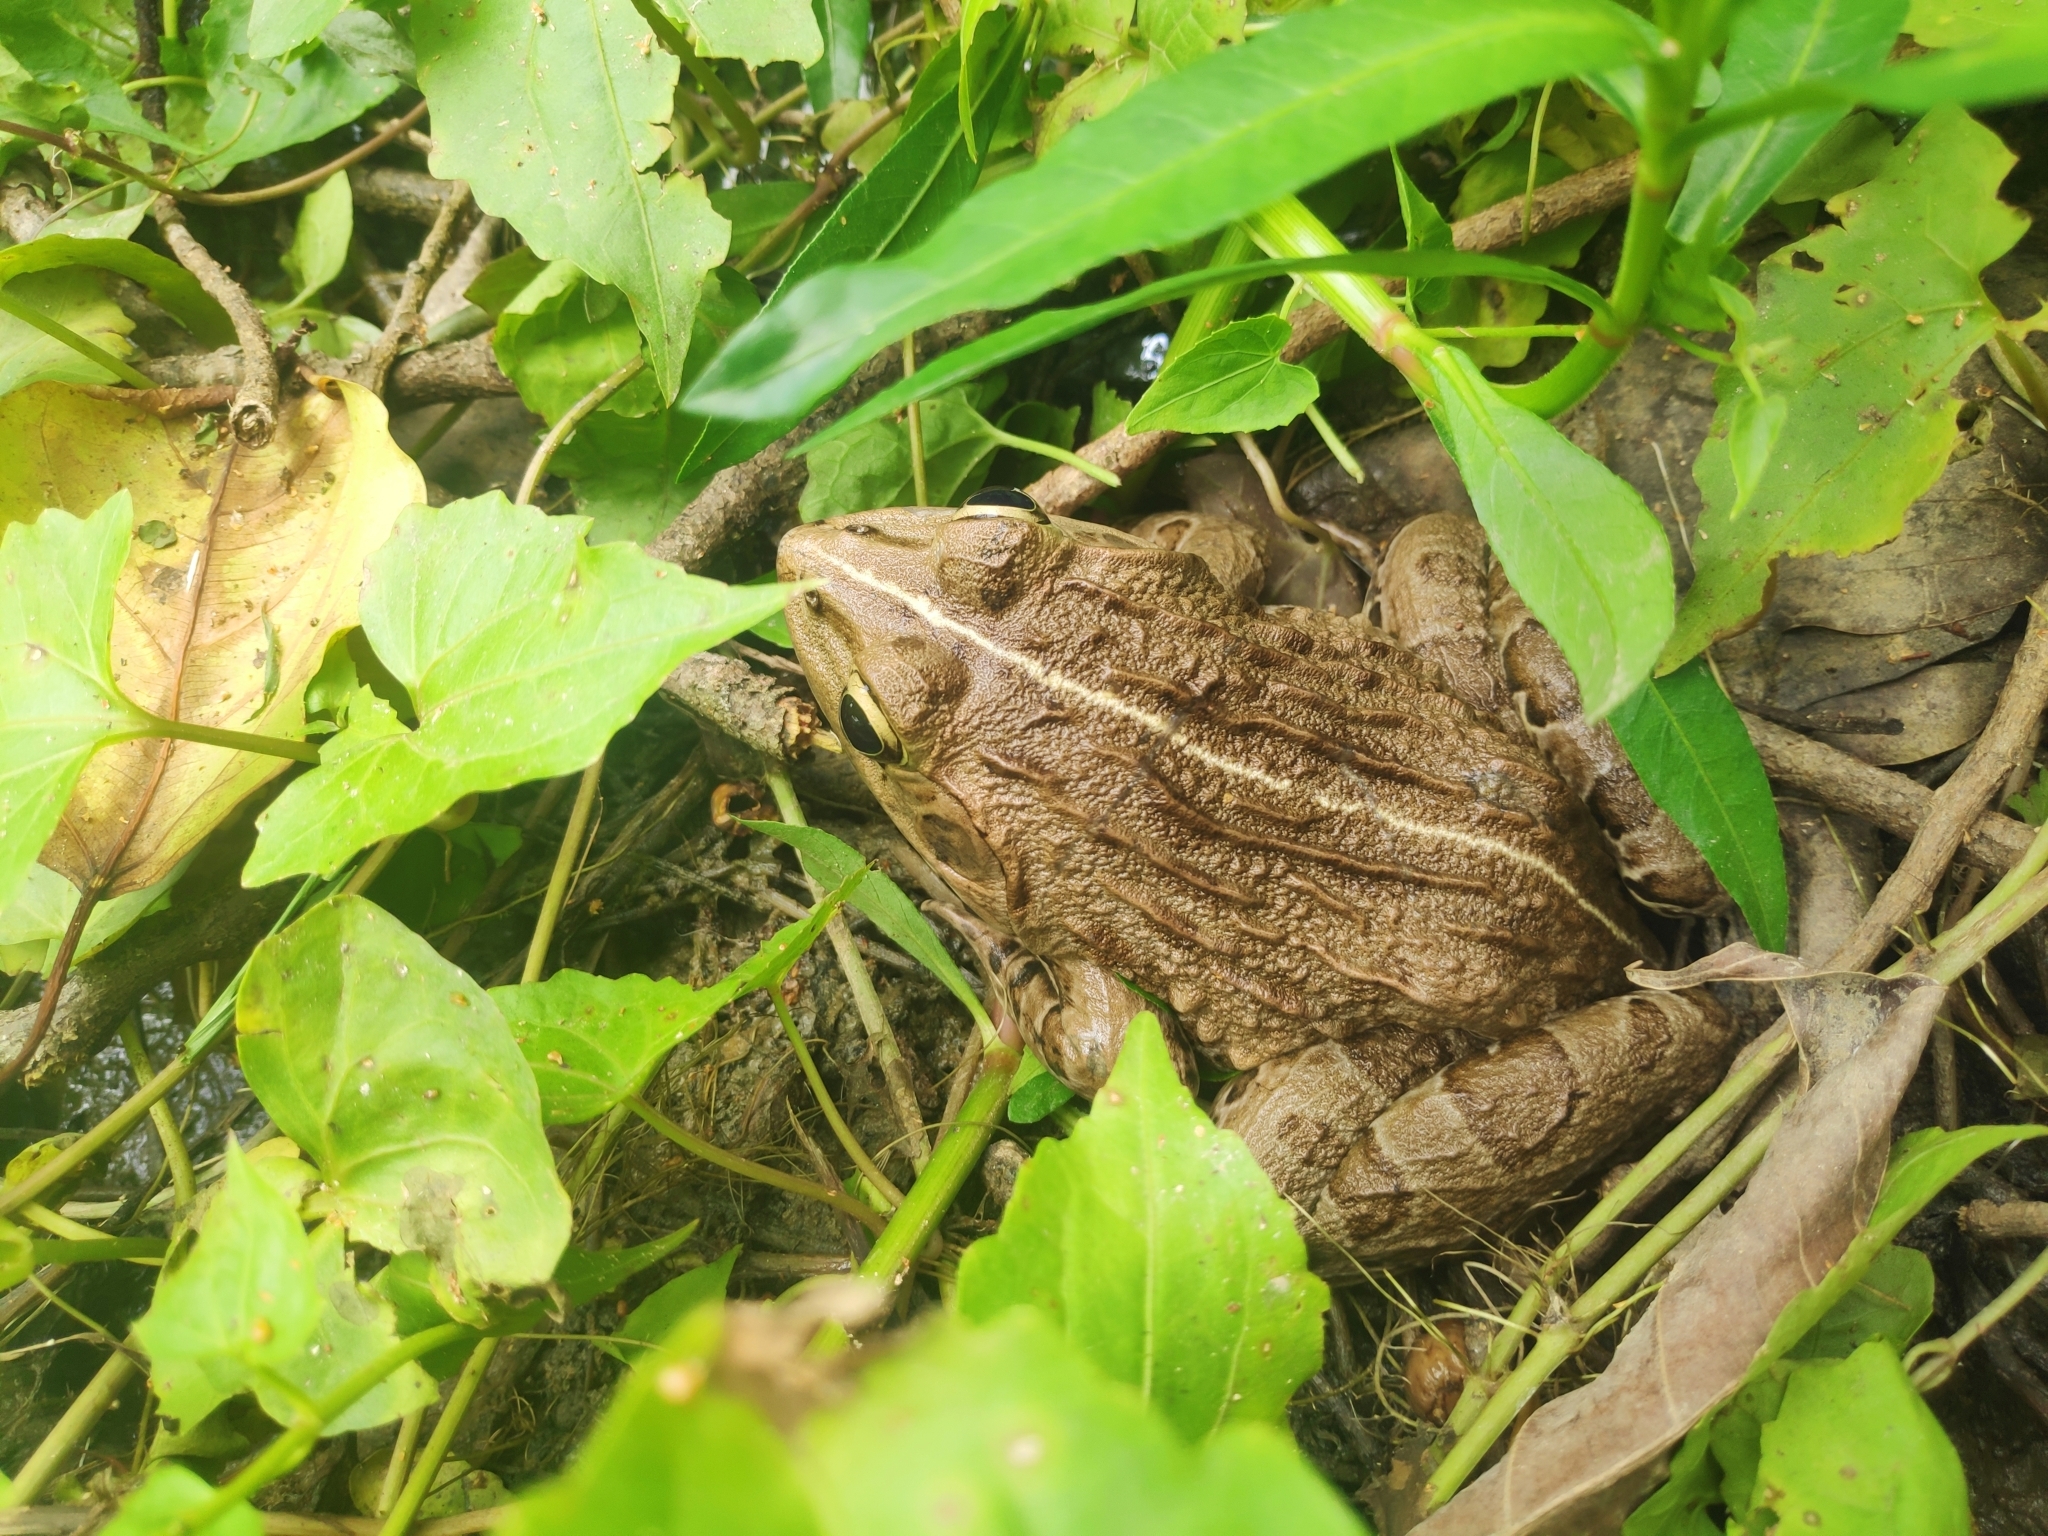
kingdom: Animalia
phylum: Chordata
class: Amphibia
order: Anura
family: Dicroglossidae
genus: Hoplobatrachus
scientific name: Hoplobatrachus tigerinus
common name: Indian bullfrog
